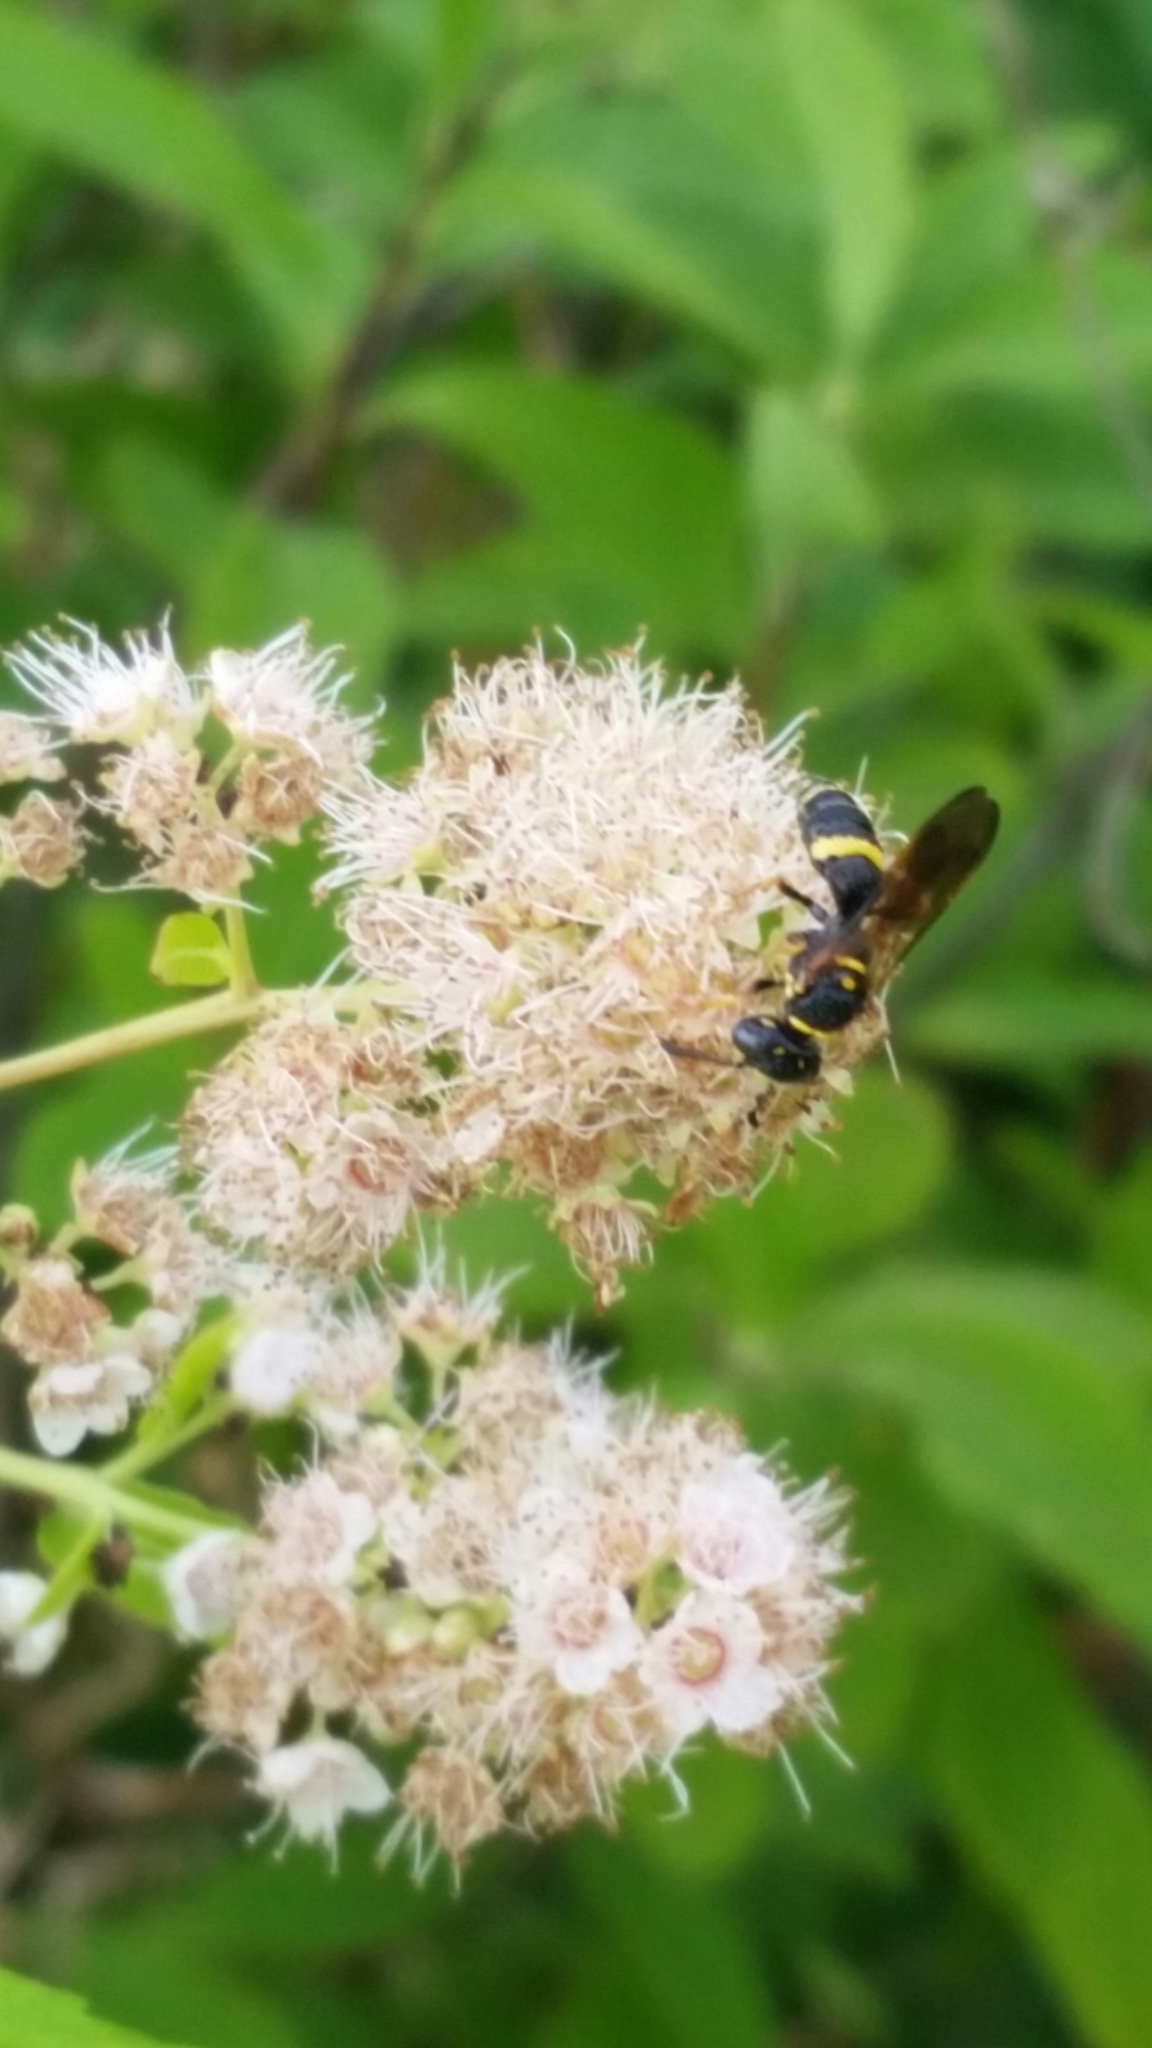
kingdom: Animalia
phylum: Arthropoda
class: Insecta
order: Hymenoptera
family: Crabronidae
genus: Philanthus
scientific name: Philanthus gibbosus
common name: Humped beewolf
